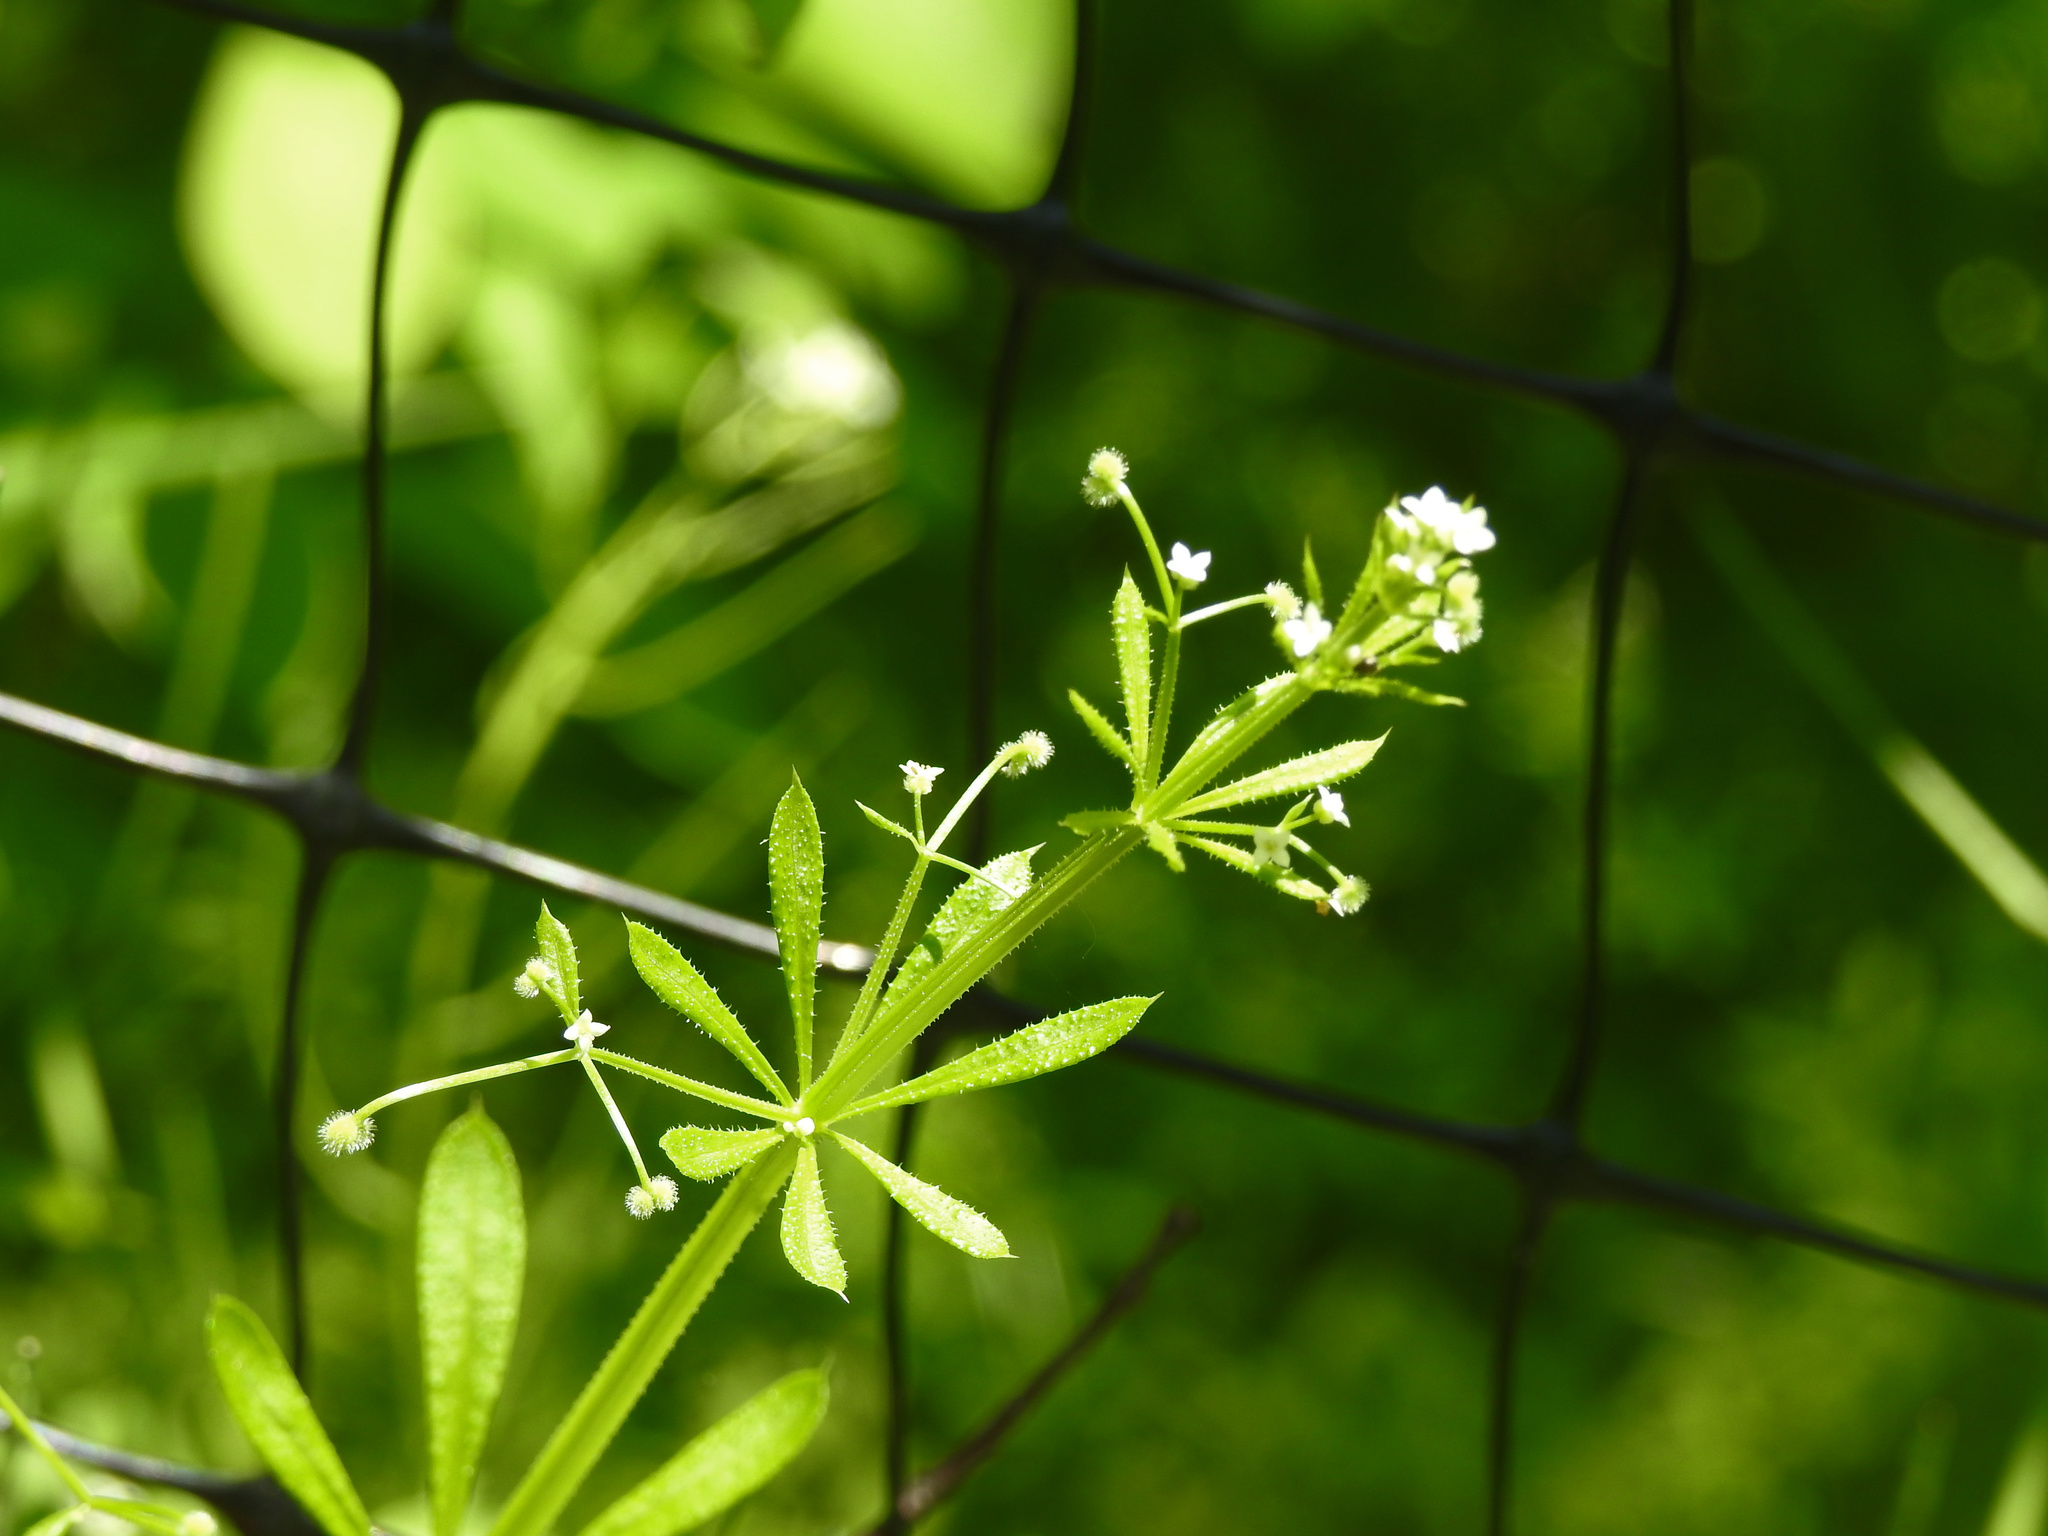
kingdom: Plantae
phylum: Tracheophyta
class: Magnoliopsida
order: Gentianales
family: Rubiaceae
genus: Galium
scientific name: Galium aparine
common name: Cleavers
